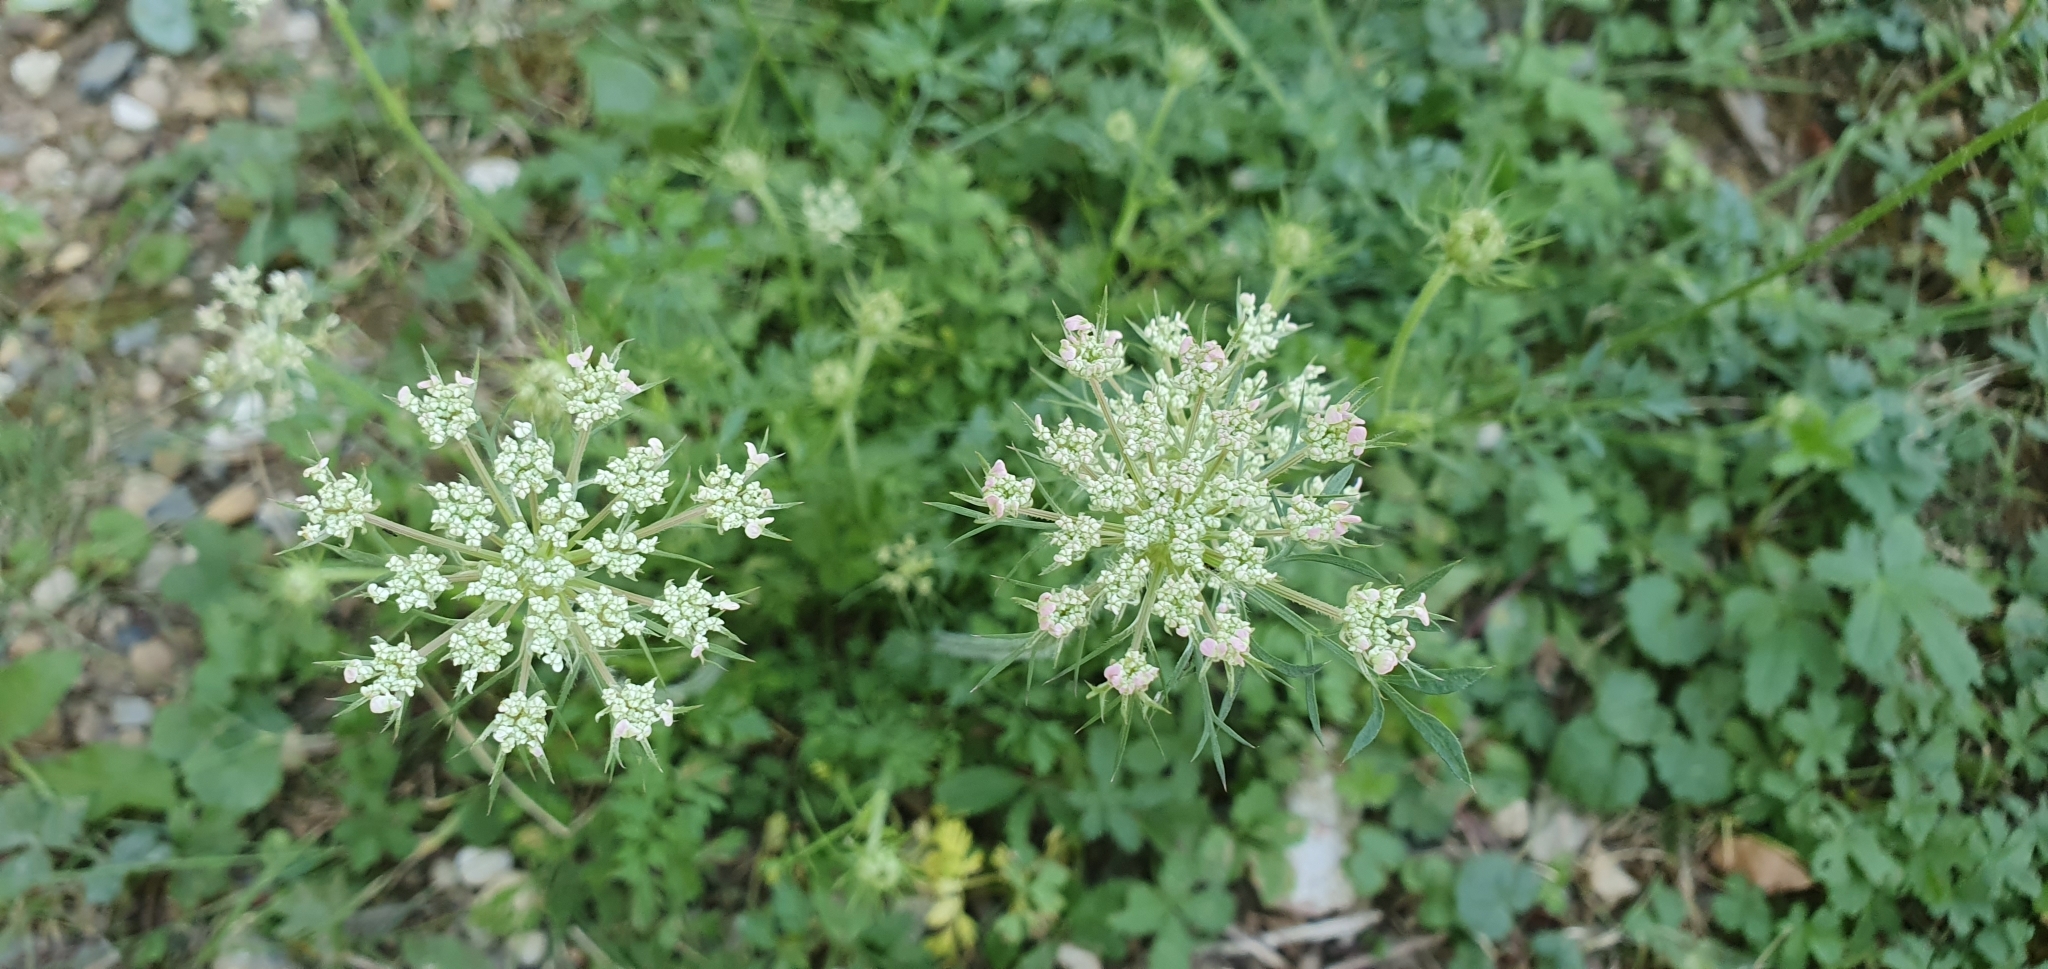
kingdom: Plantae
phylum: Tracheophyta
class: Magnoliopsida
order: Apiales
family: Apiaceae
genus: Daucus
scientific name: Daucus carota
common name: Wild carrot
